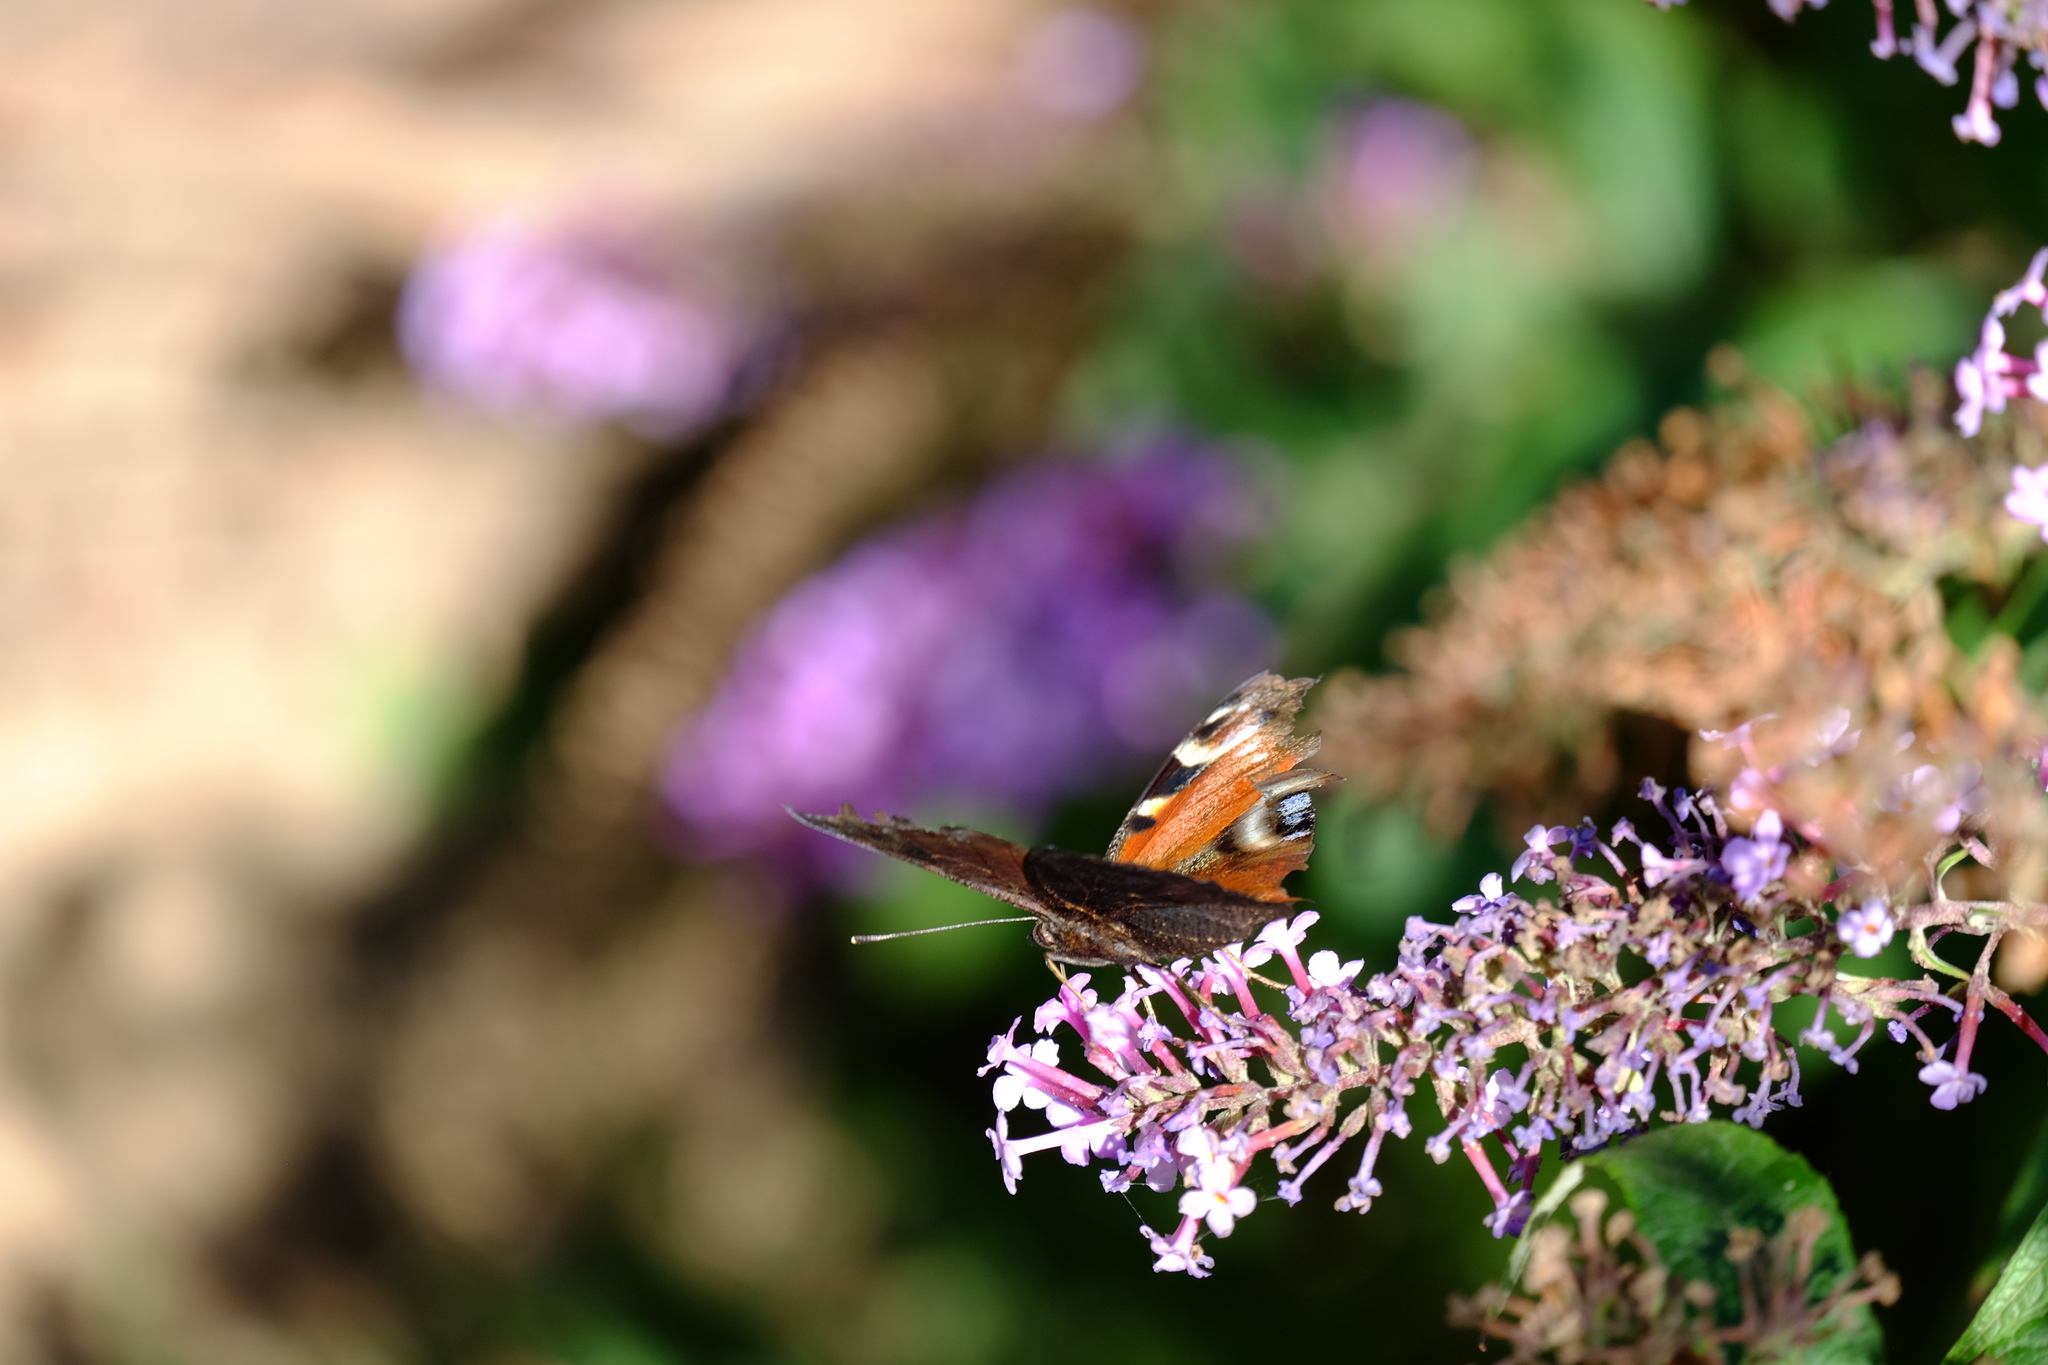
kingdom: Animalia
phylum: Arthropoda
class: Insecta
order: Lepidoptera
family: Nymphalidae
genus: Aglais
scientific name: Aglais io
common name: Peacock
